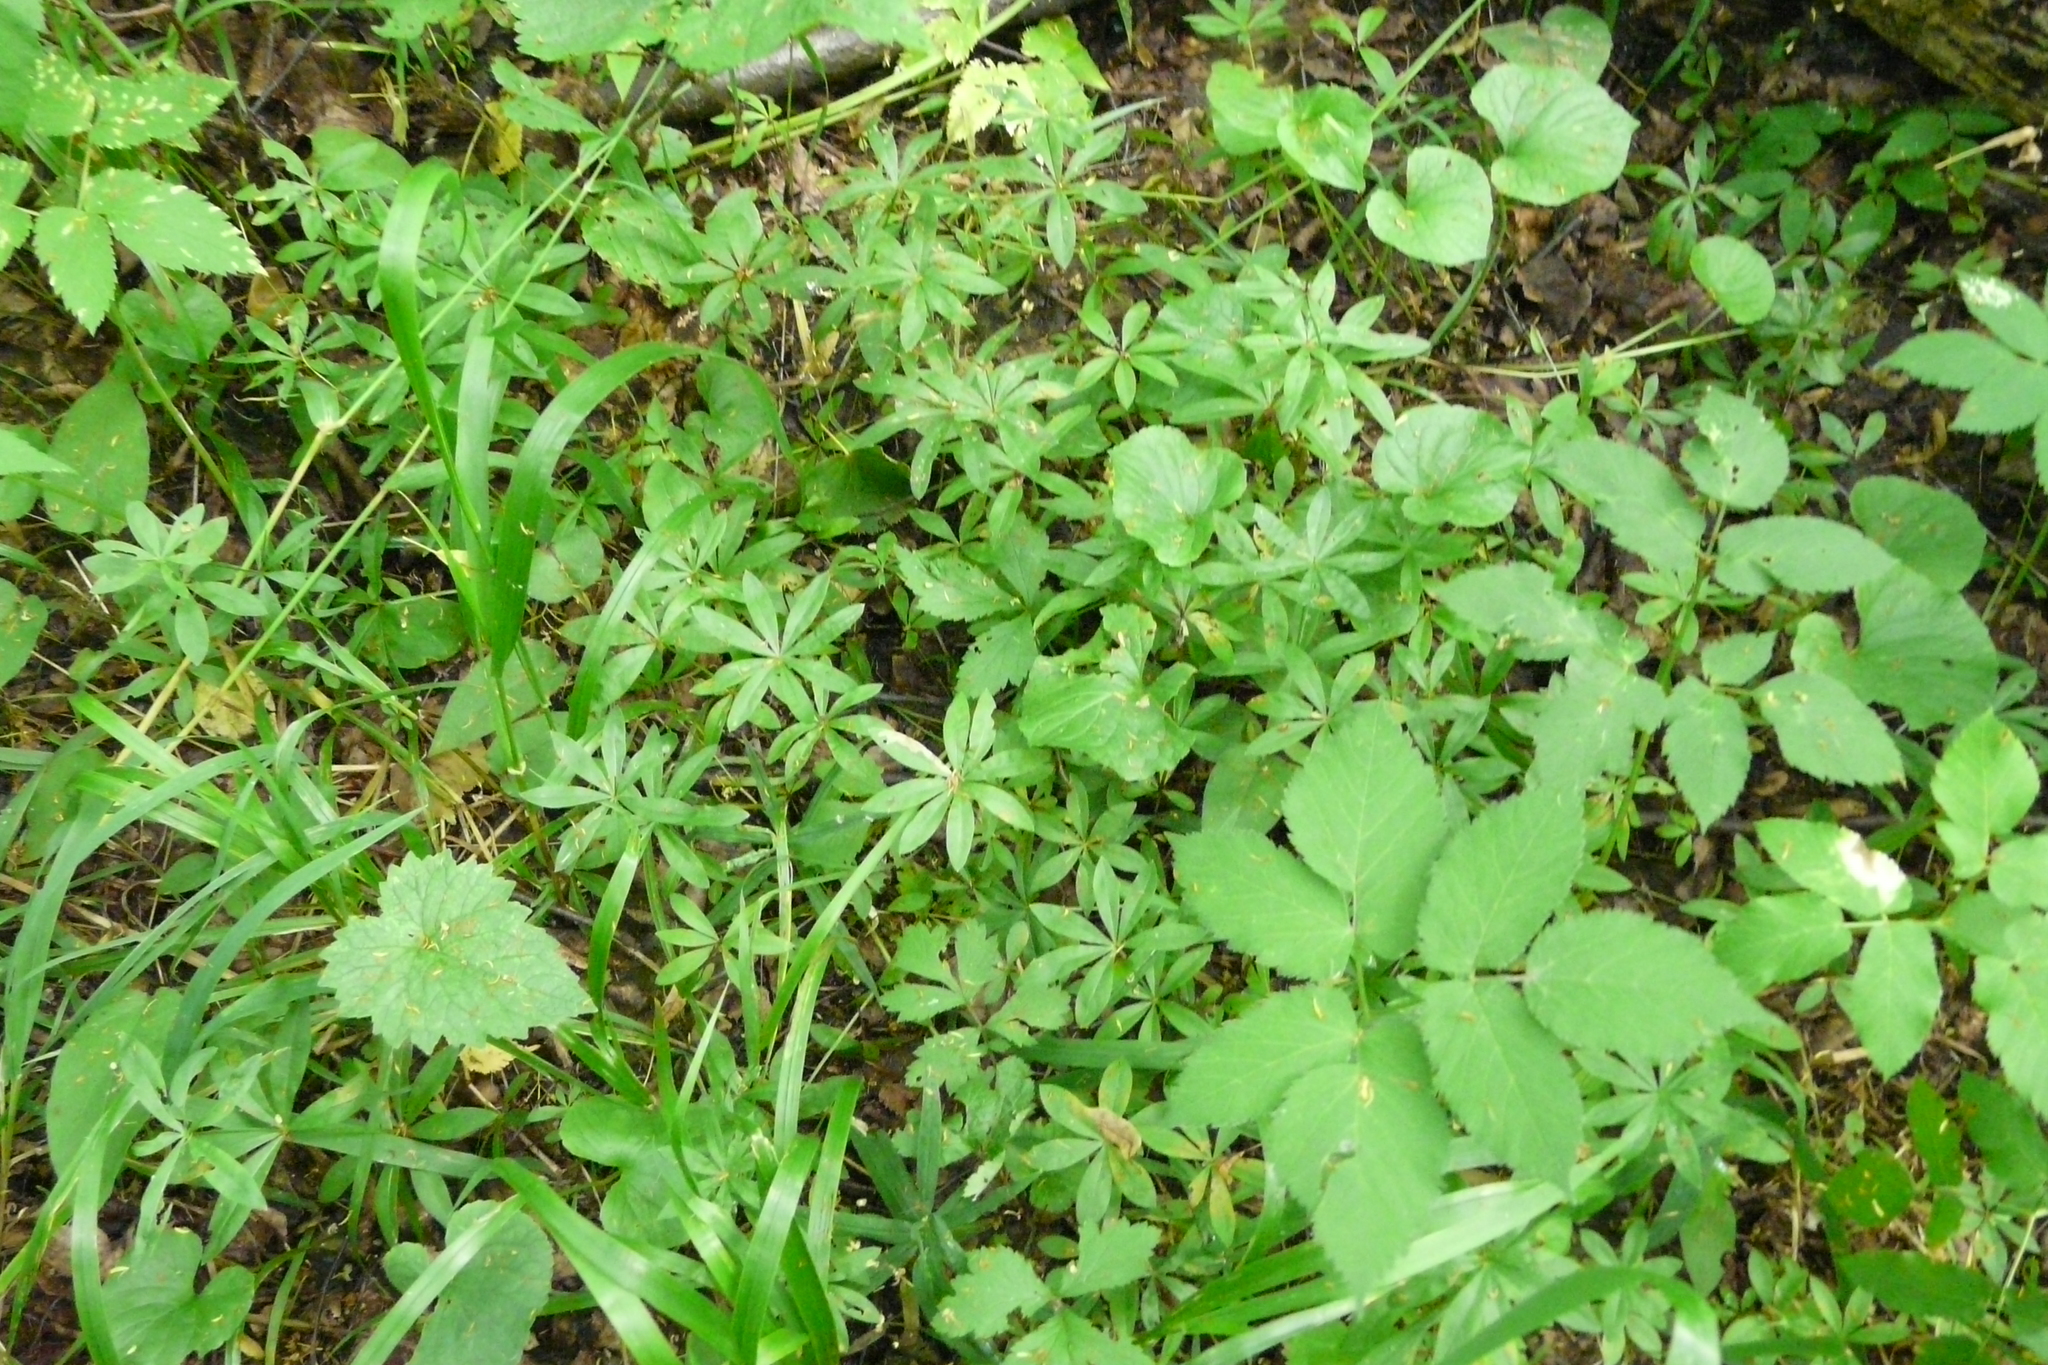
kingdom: Plantae
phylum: Tracheophyta
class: Magnoliopsida
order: Gentianales
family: Rubiaceae
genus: Galium
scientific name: Galium odoratum
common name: Sweet woodruff
